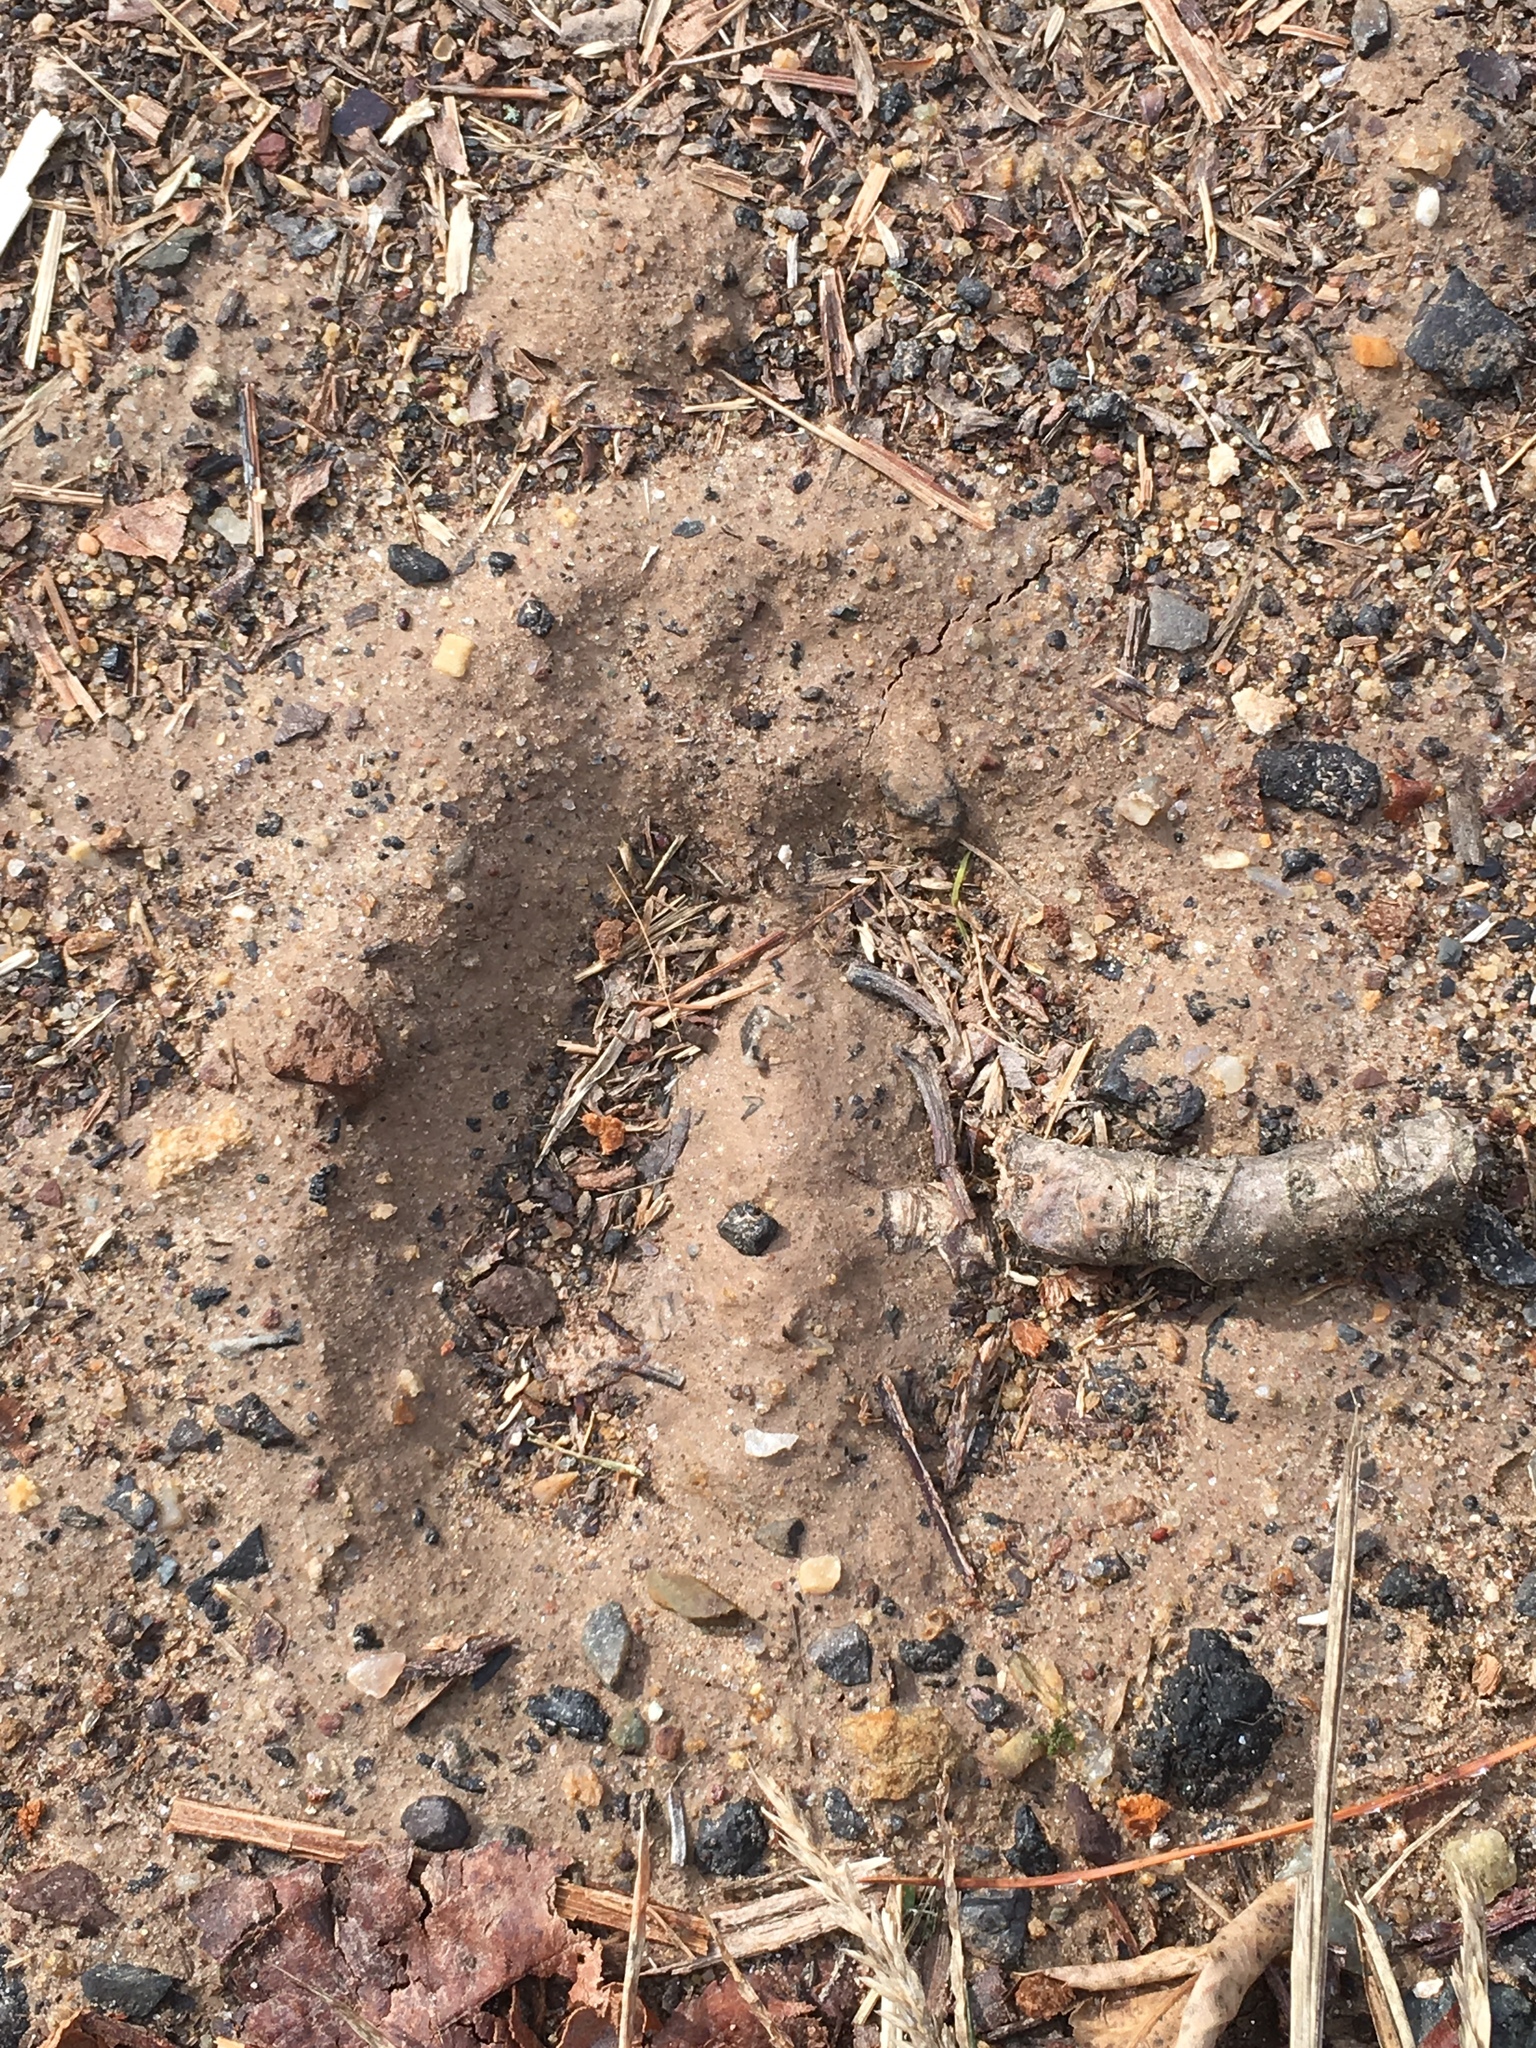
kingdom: Animalia
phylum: Chordata
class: Mammalia
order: Artiodactyla
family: Cervidae
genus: Odocoileus
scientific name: Odocoileus virginianus
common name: White-tailed deer
